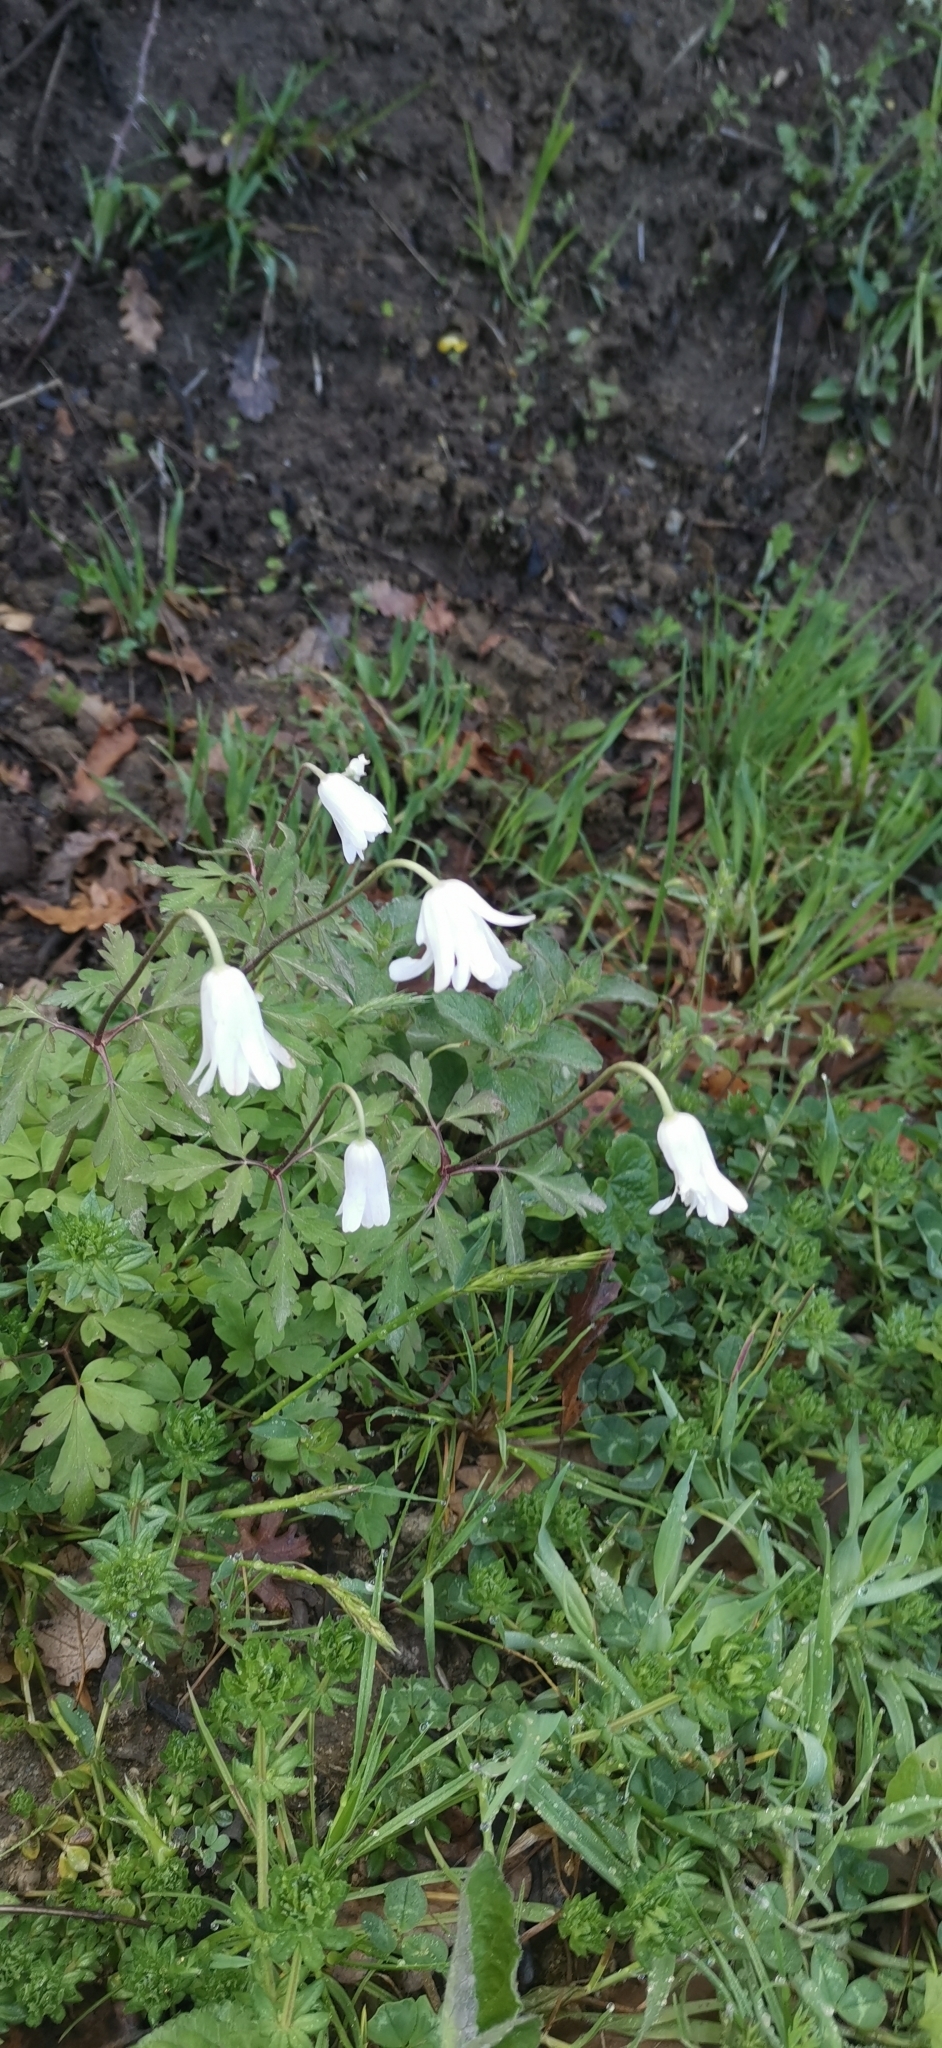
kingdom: Plantae
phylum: Tracheophyta
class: Magnoliopsida
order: Ranunculales
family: Ranunculaceae
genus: Anemone
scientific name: Anemone apennina
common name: Blue anemone
